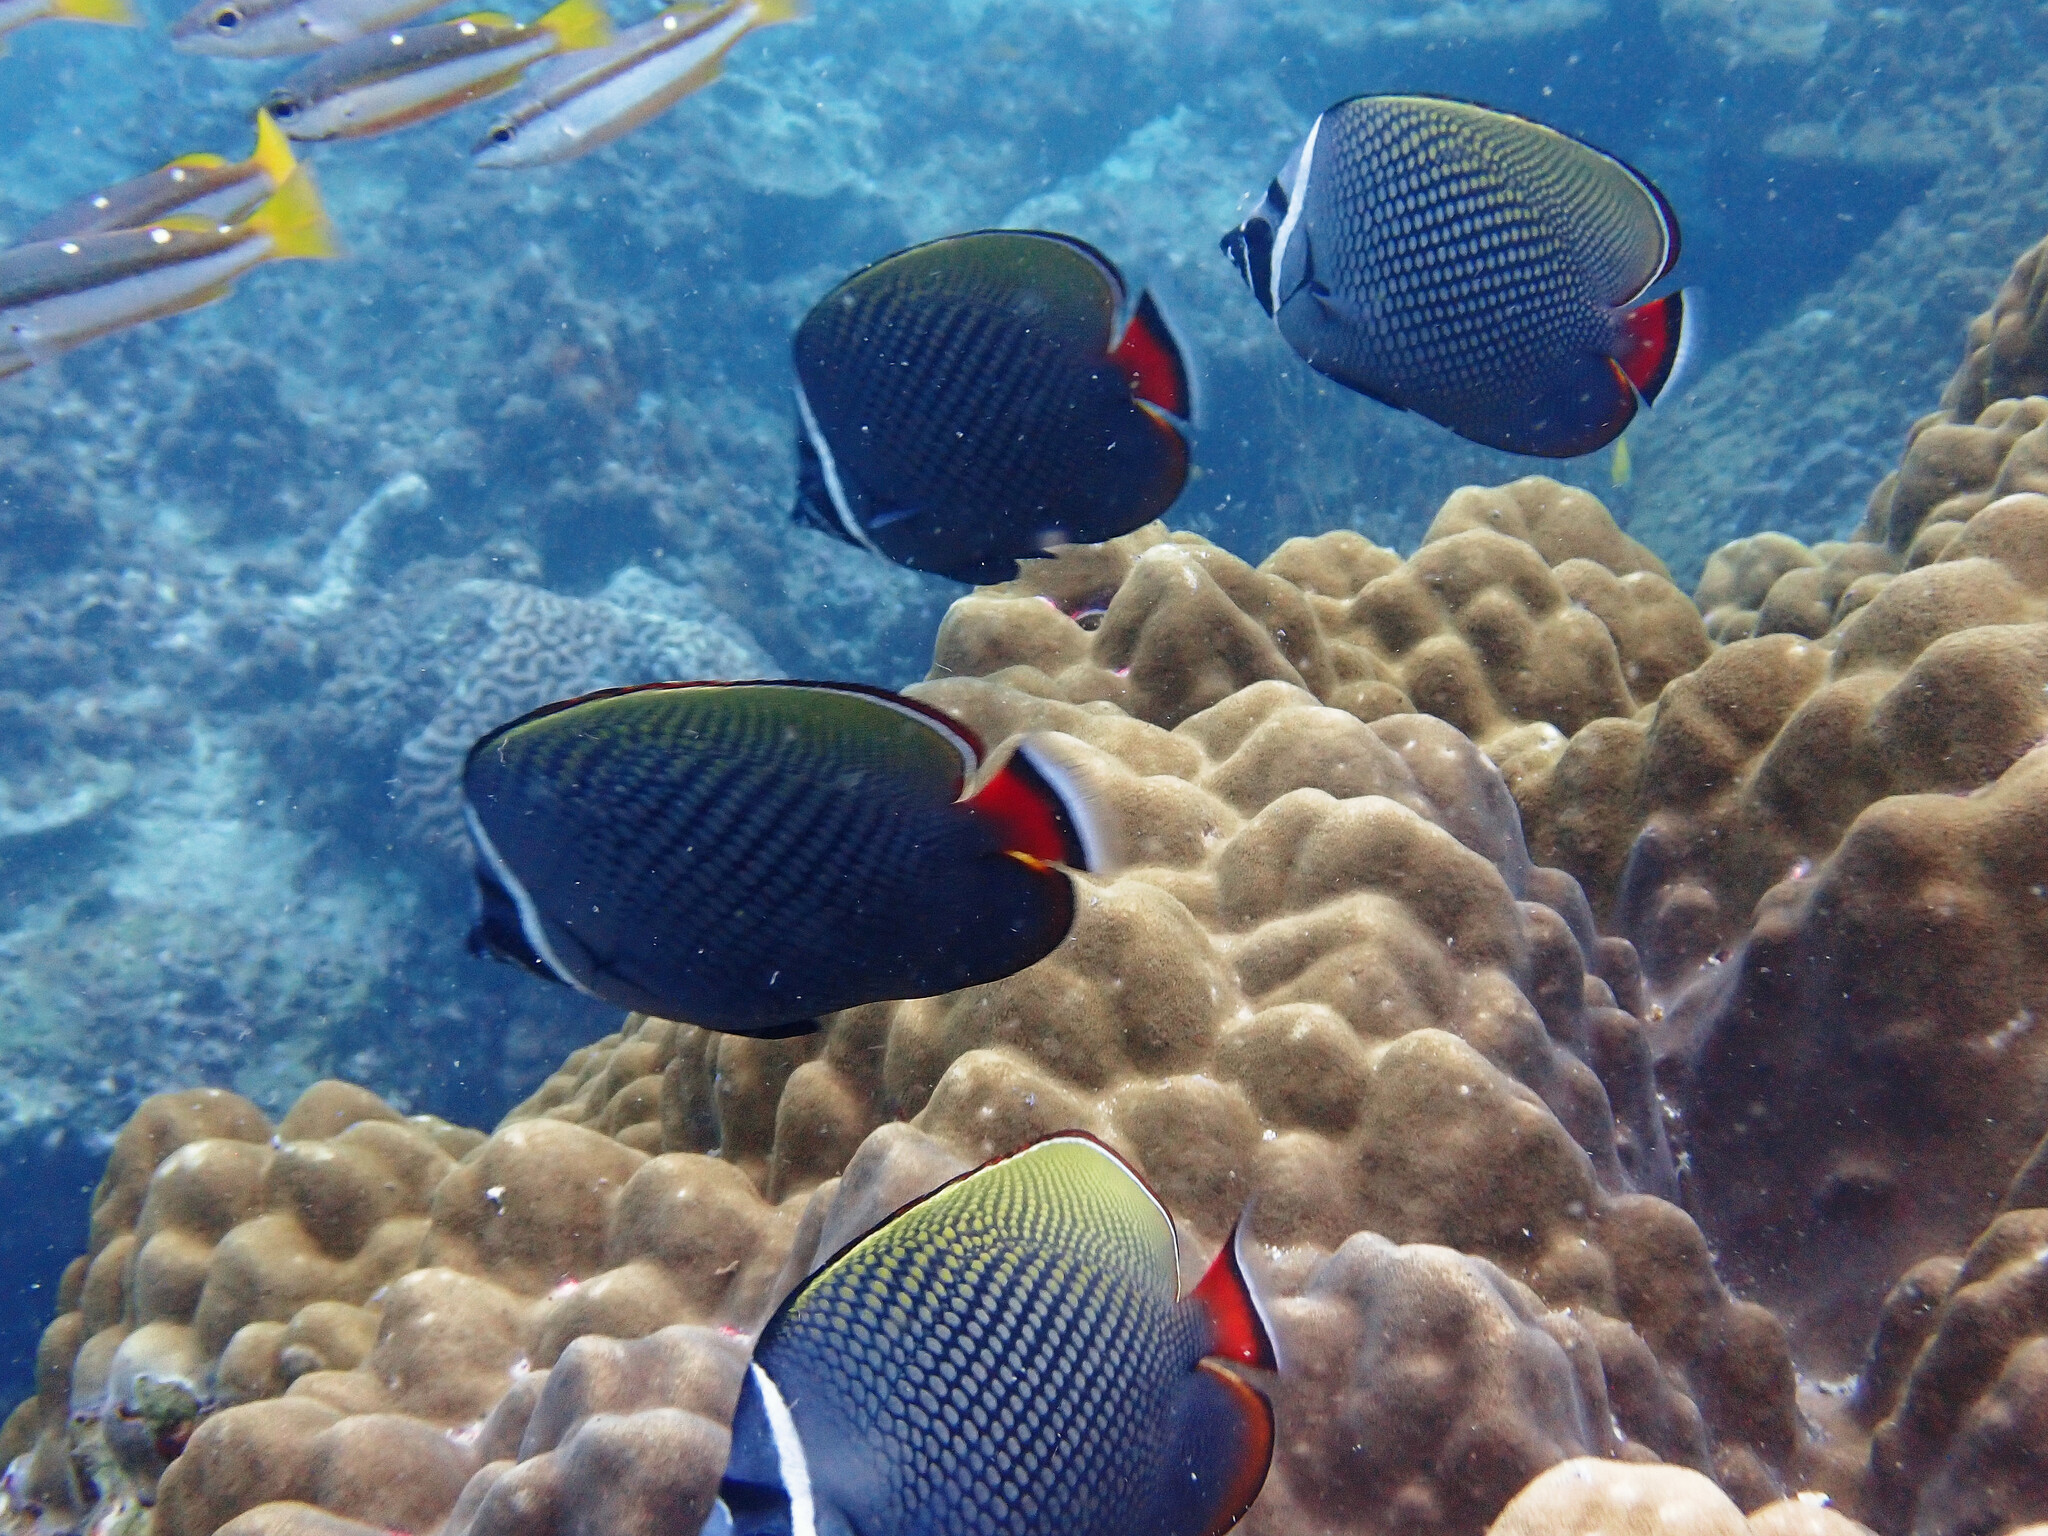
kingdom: Animalia
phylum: Chordata
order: Perciformes
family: Chaetodontidae
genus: Chaetodon
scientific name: Chaetodon collare
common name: Redtail butterflyfish
